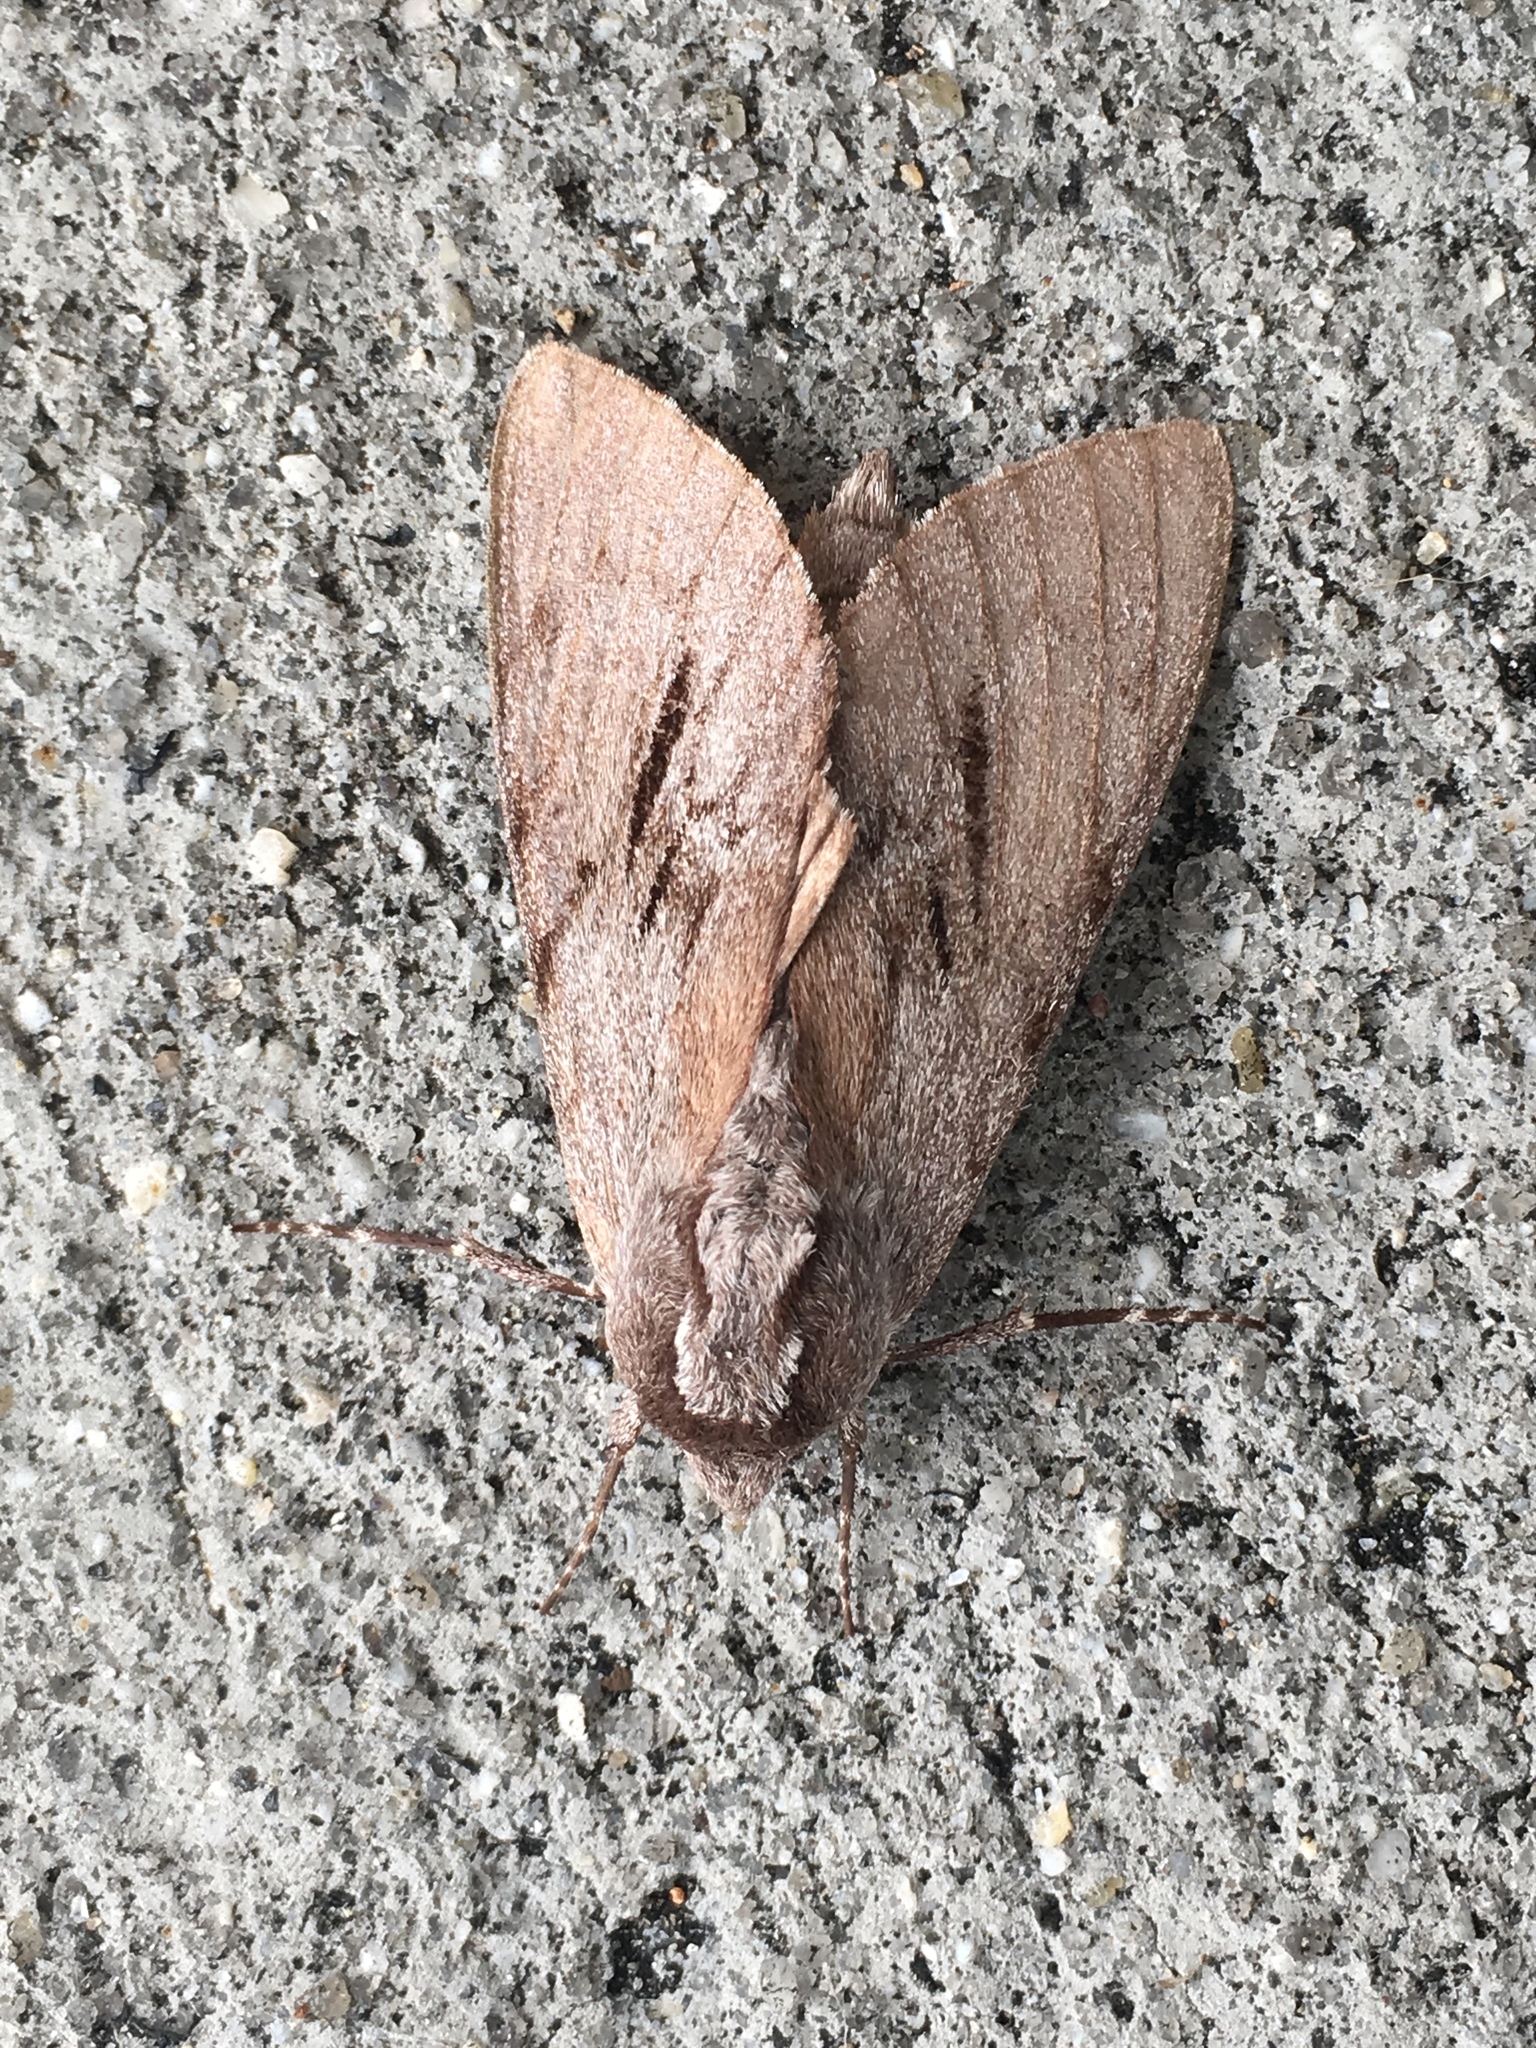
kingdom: Animalia
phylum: Arthropoda
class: Insecta
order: Lepidoptera
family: Sphingidae
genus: Lapara
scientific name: Lapara coniferarum
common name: Southern pine sphinx
